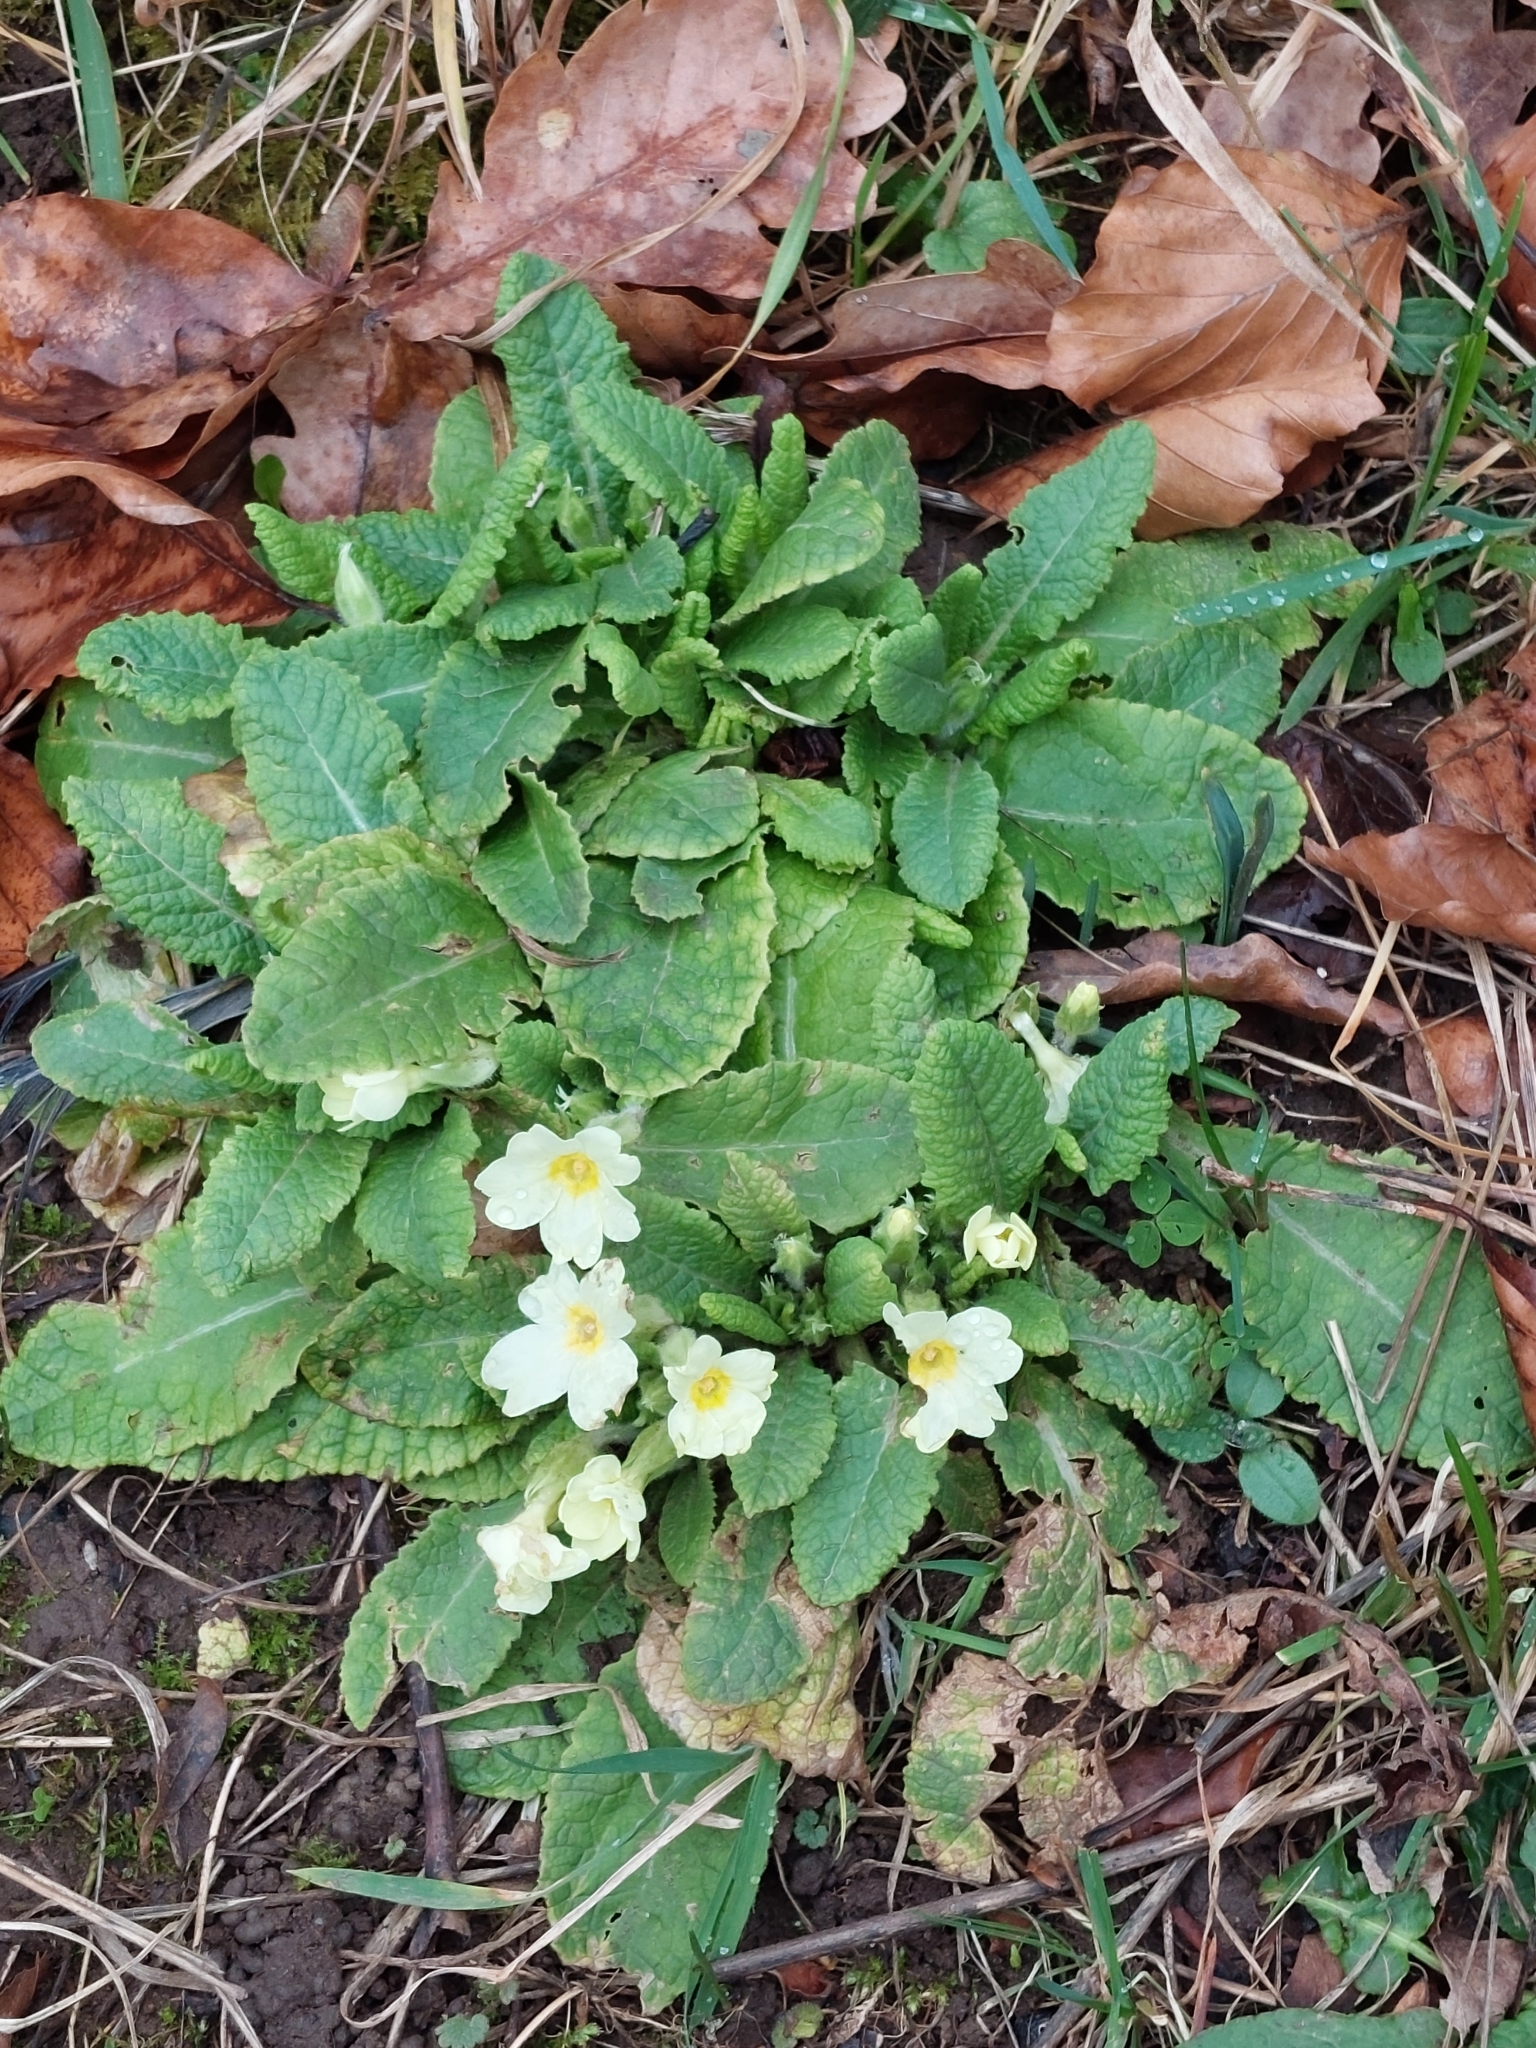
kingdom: Plantae
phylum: Tracheophyta
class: Magnoliopsida
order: Ericales
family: Primulaceae
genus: Primula
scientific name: Primula vulgaris
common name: Primrose
